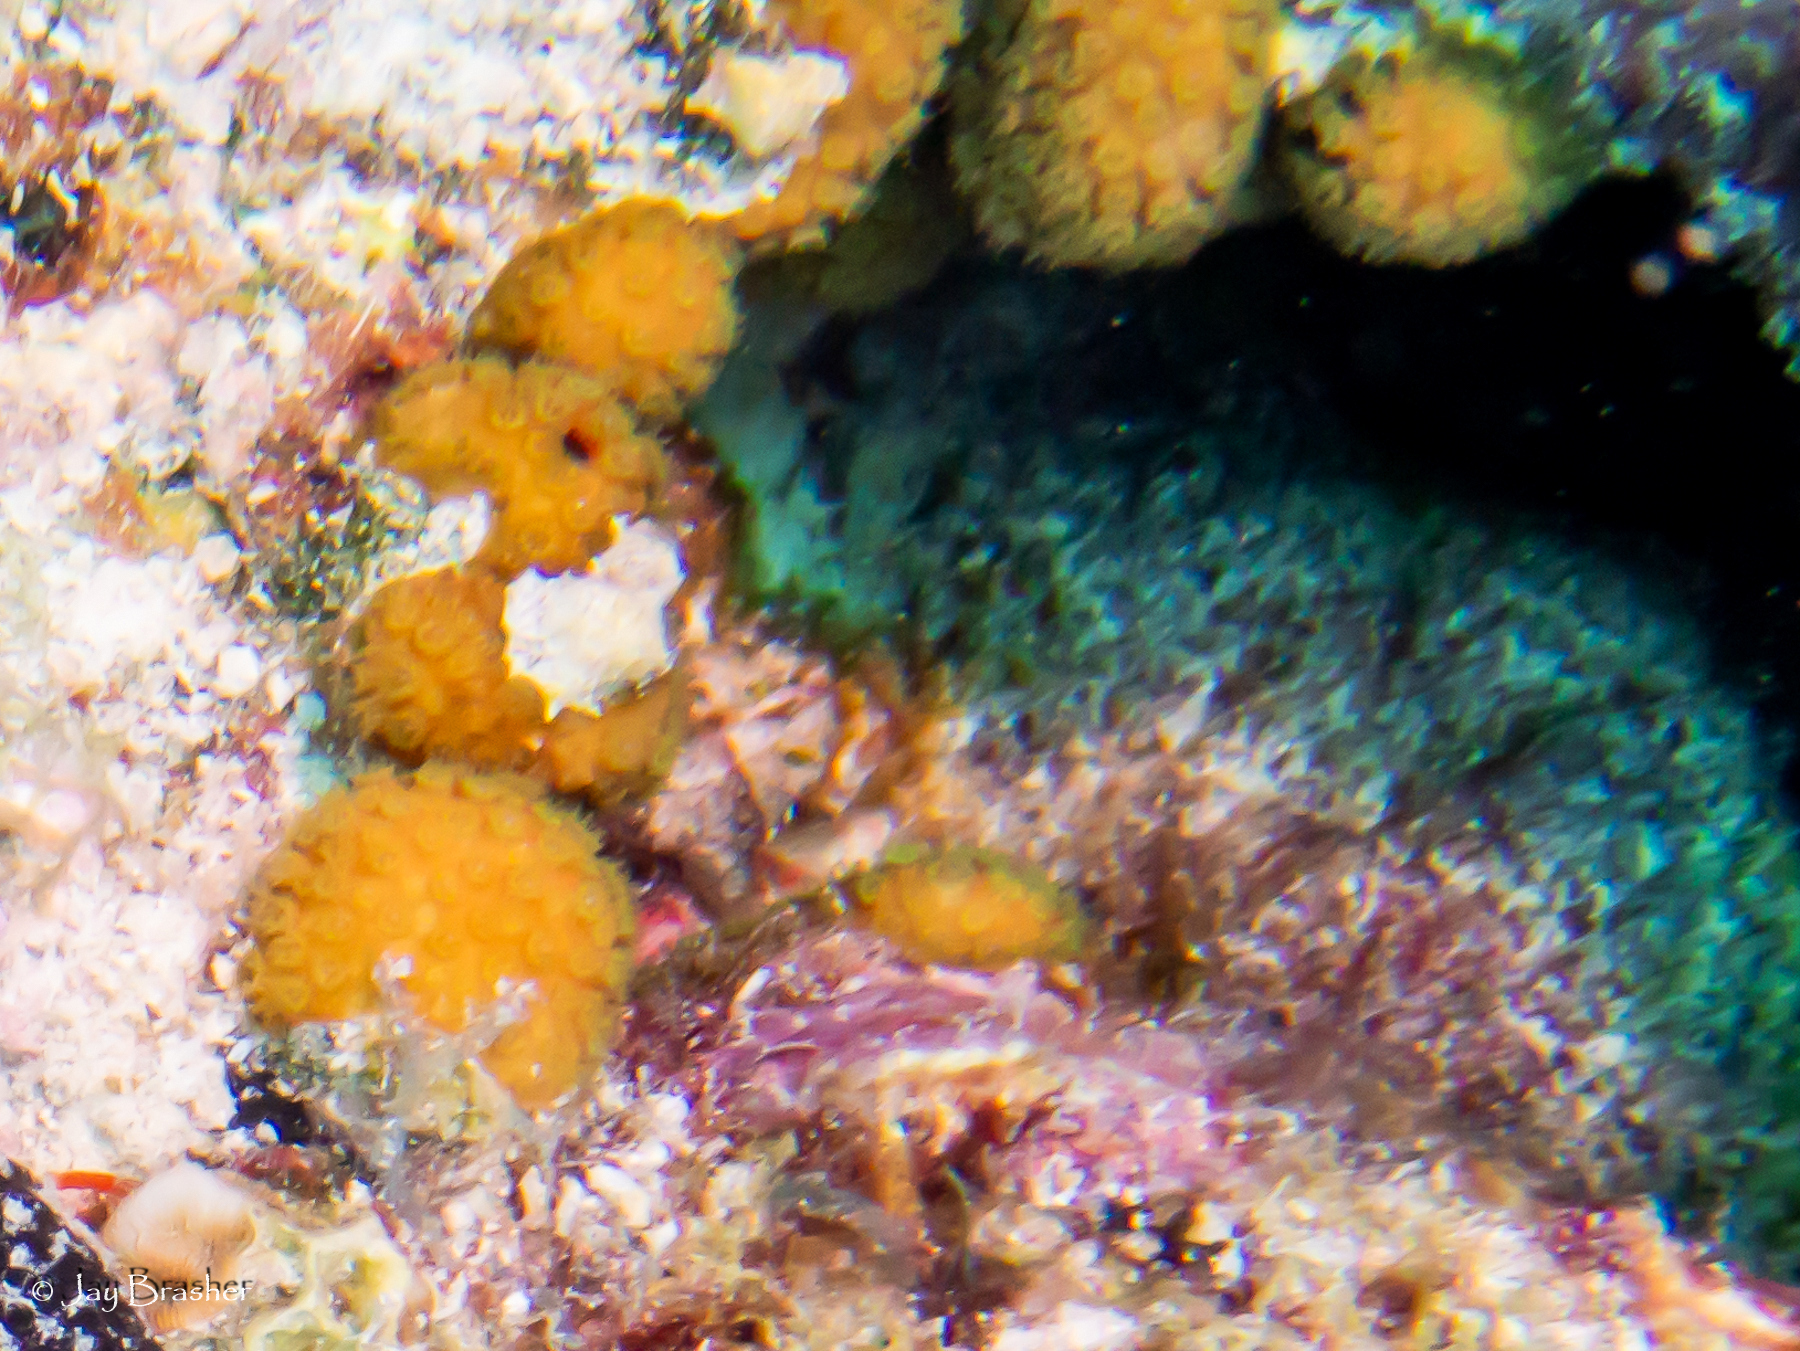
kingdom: Animalia
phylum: Cnidaria
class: Anthozoa
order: Scleractinia
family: Pocilloporidae
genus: Madracis
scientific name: Madracis decactis
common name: Ten-ray star coral
